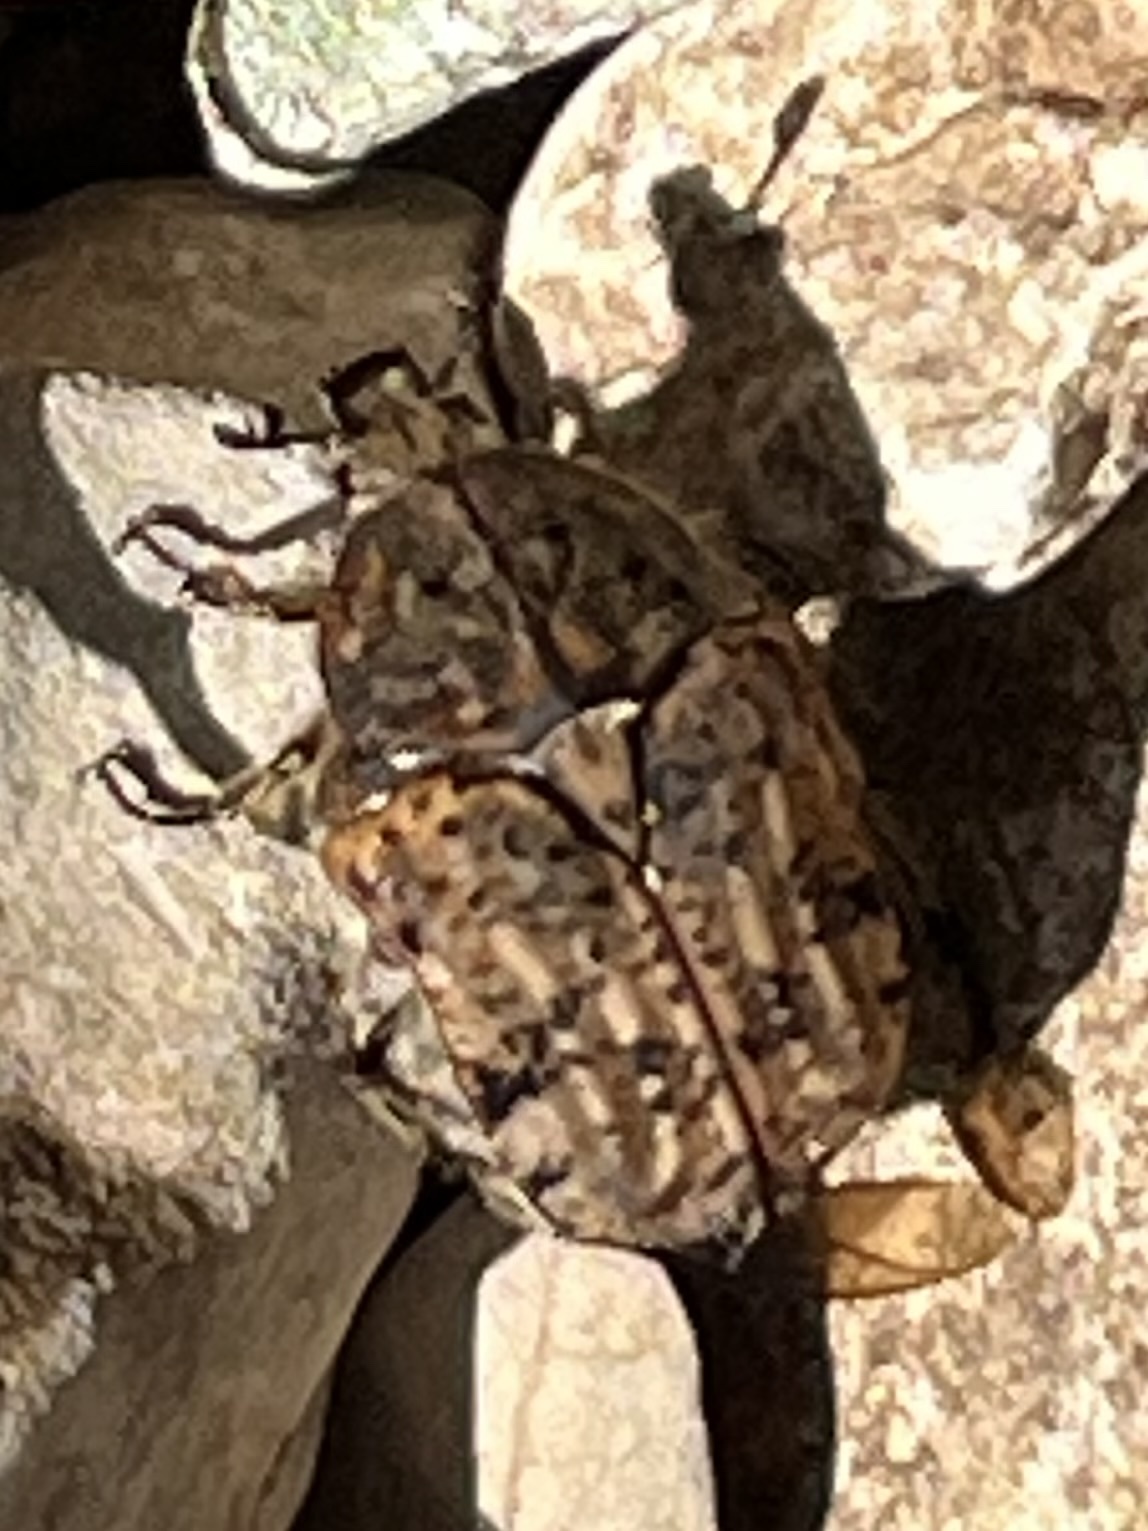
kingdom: Animalia
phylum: Arthropoda
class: Insecta
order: Coleoptera
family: Scarabaeidae
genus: Euphoria
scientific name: Euphoria inda
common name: Bumble flower beetle
